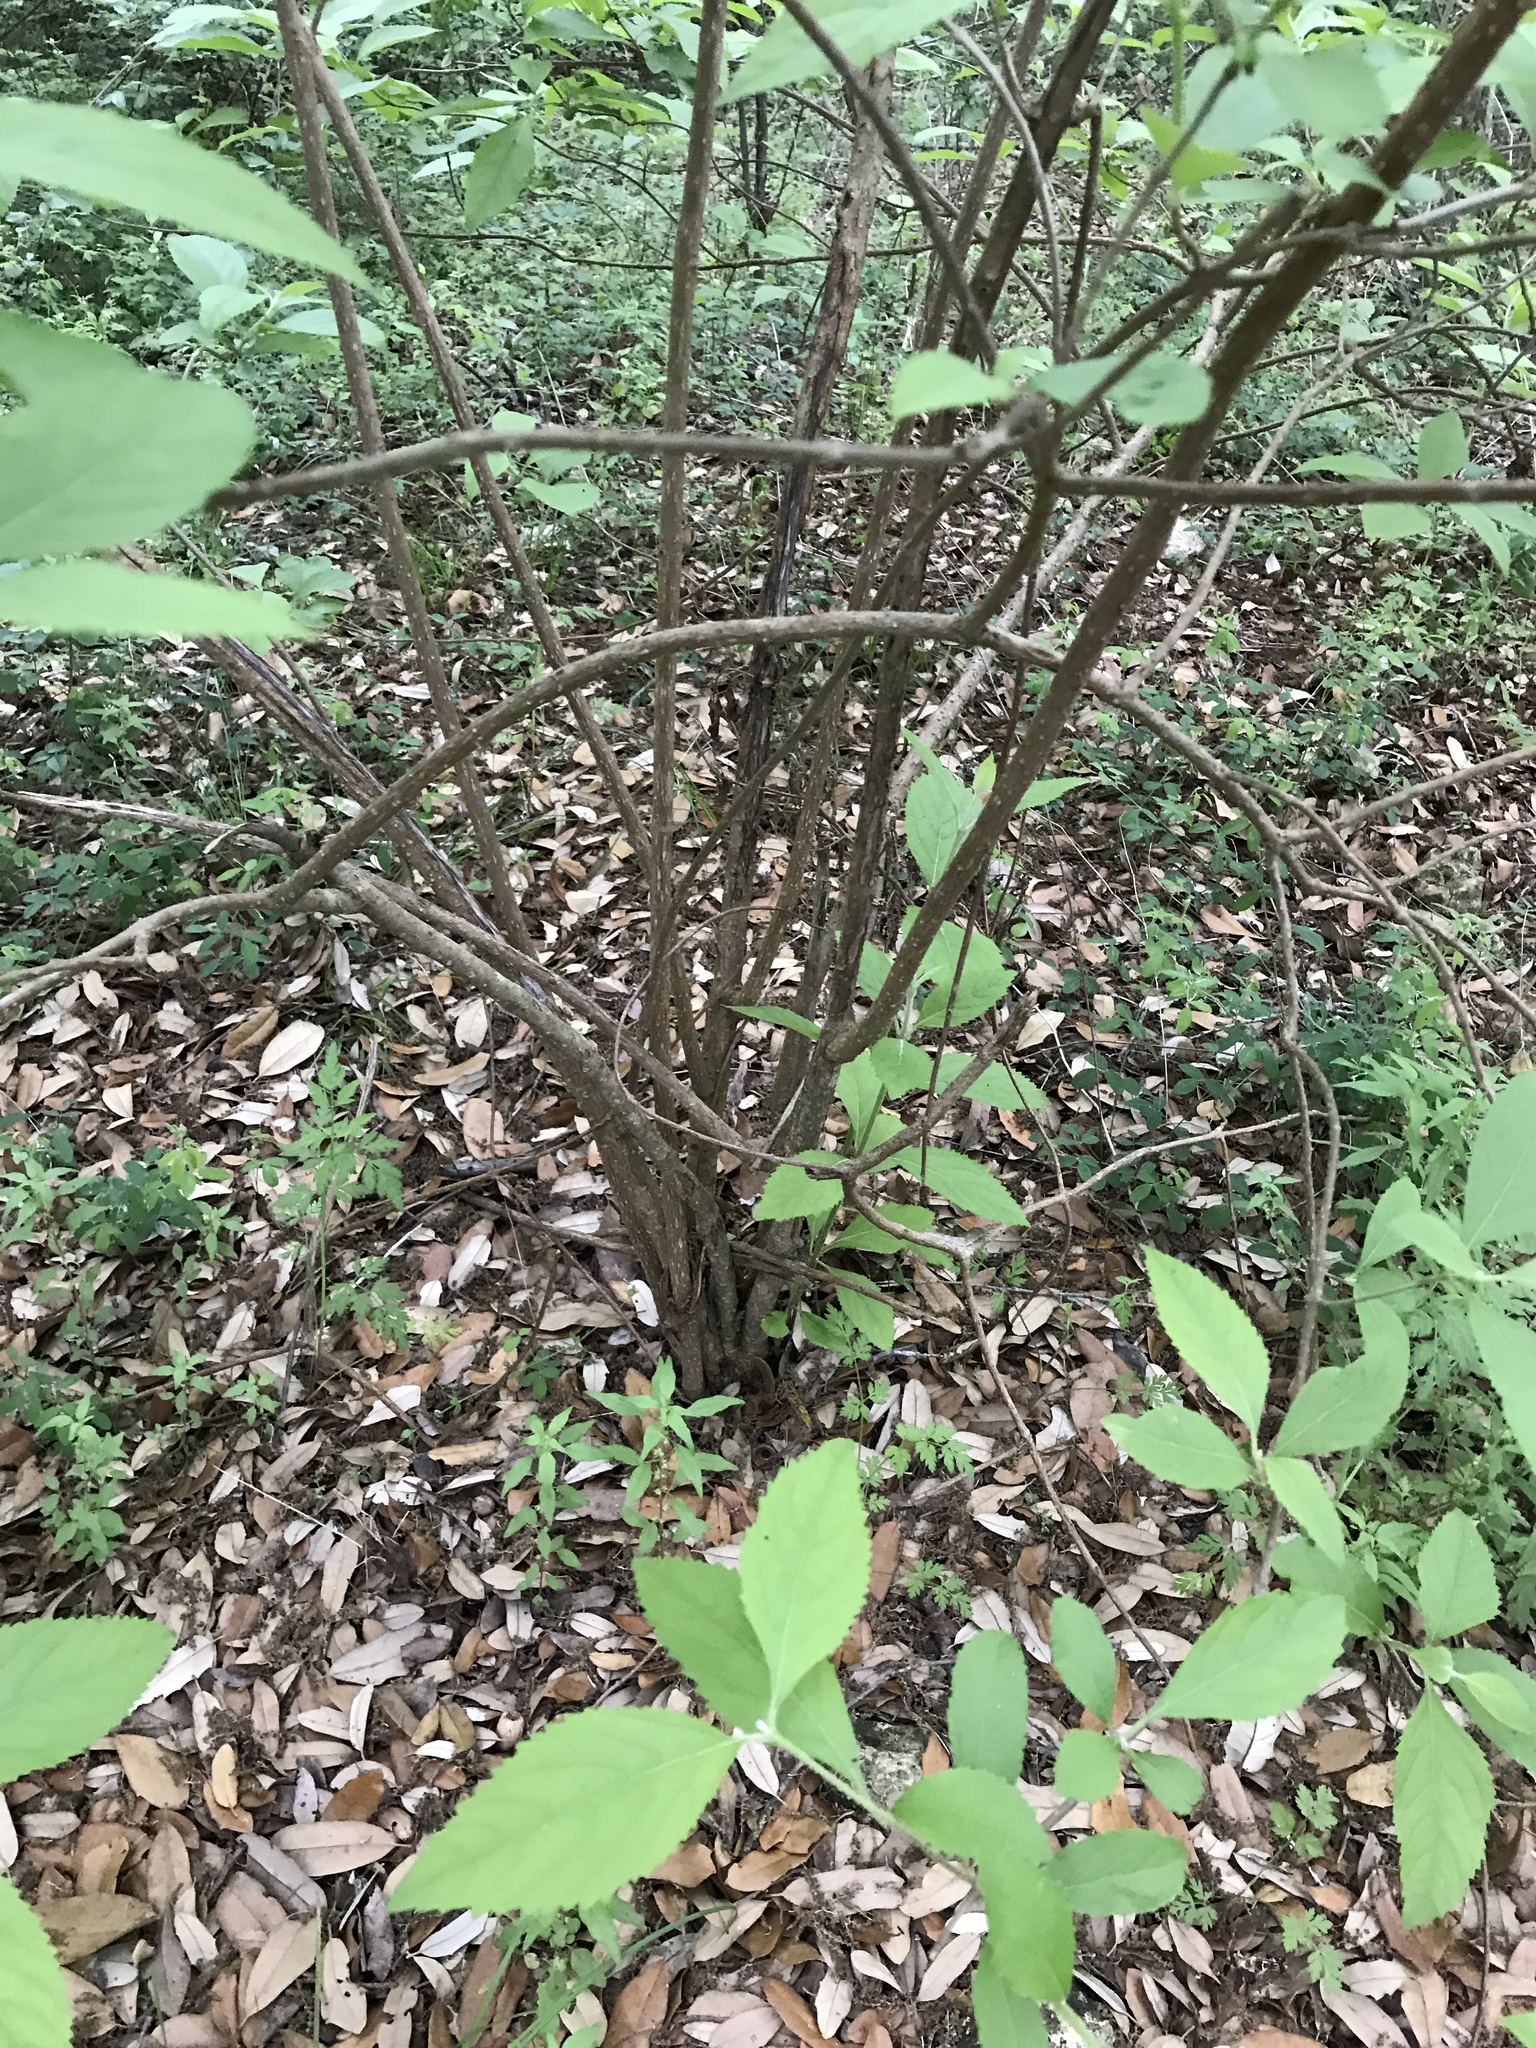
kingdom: Plantae
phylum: Tracheophyta
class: Magnoliopsida
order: Lamiales
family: Lamiaceae
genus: Callicarpa
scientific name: Callicarpa americana
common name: American beautyberry
